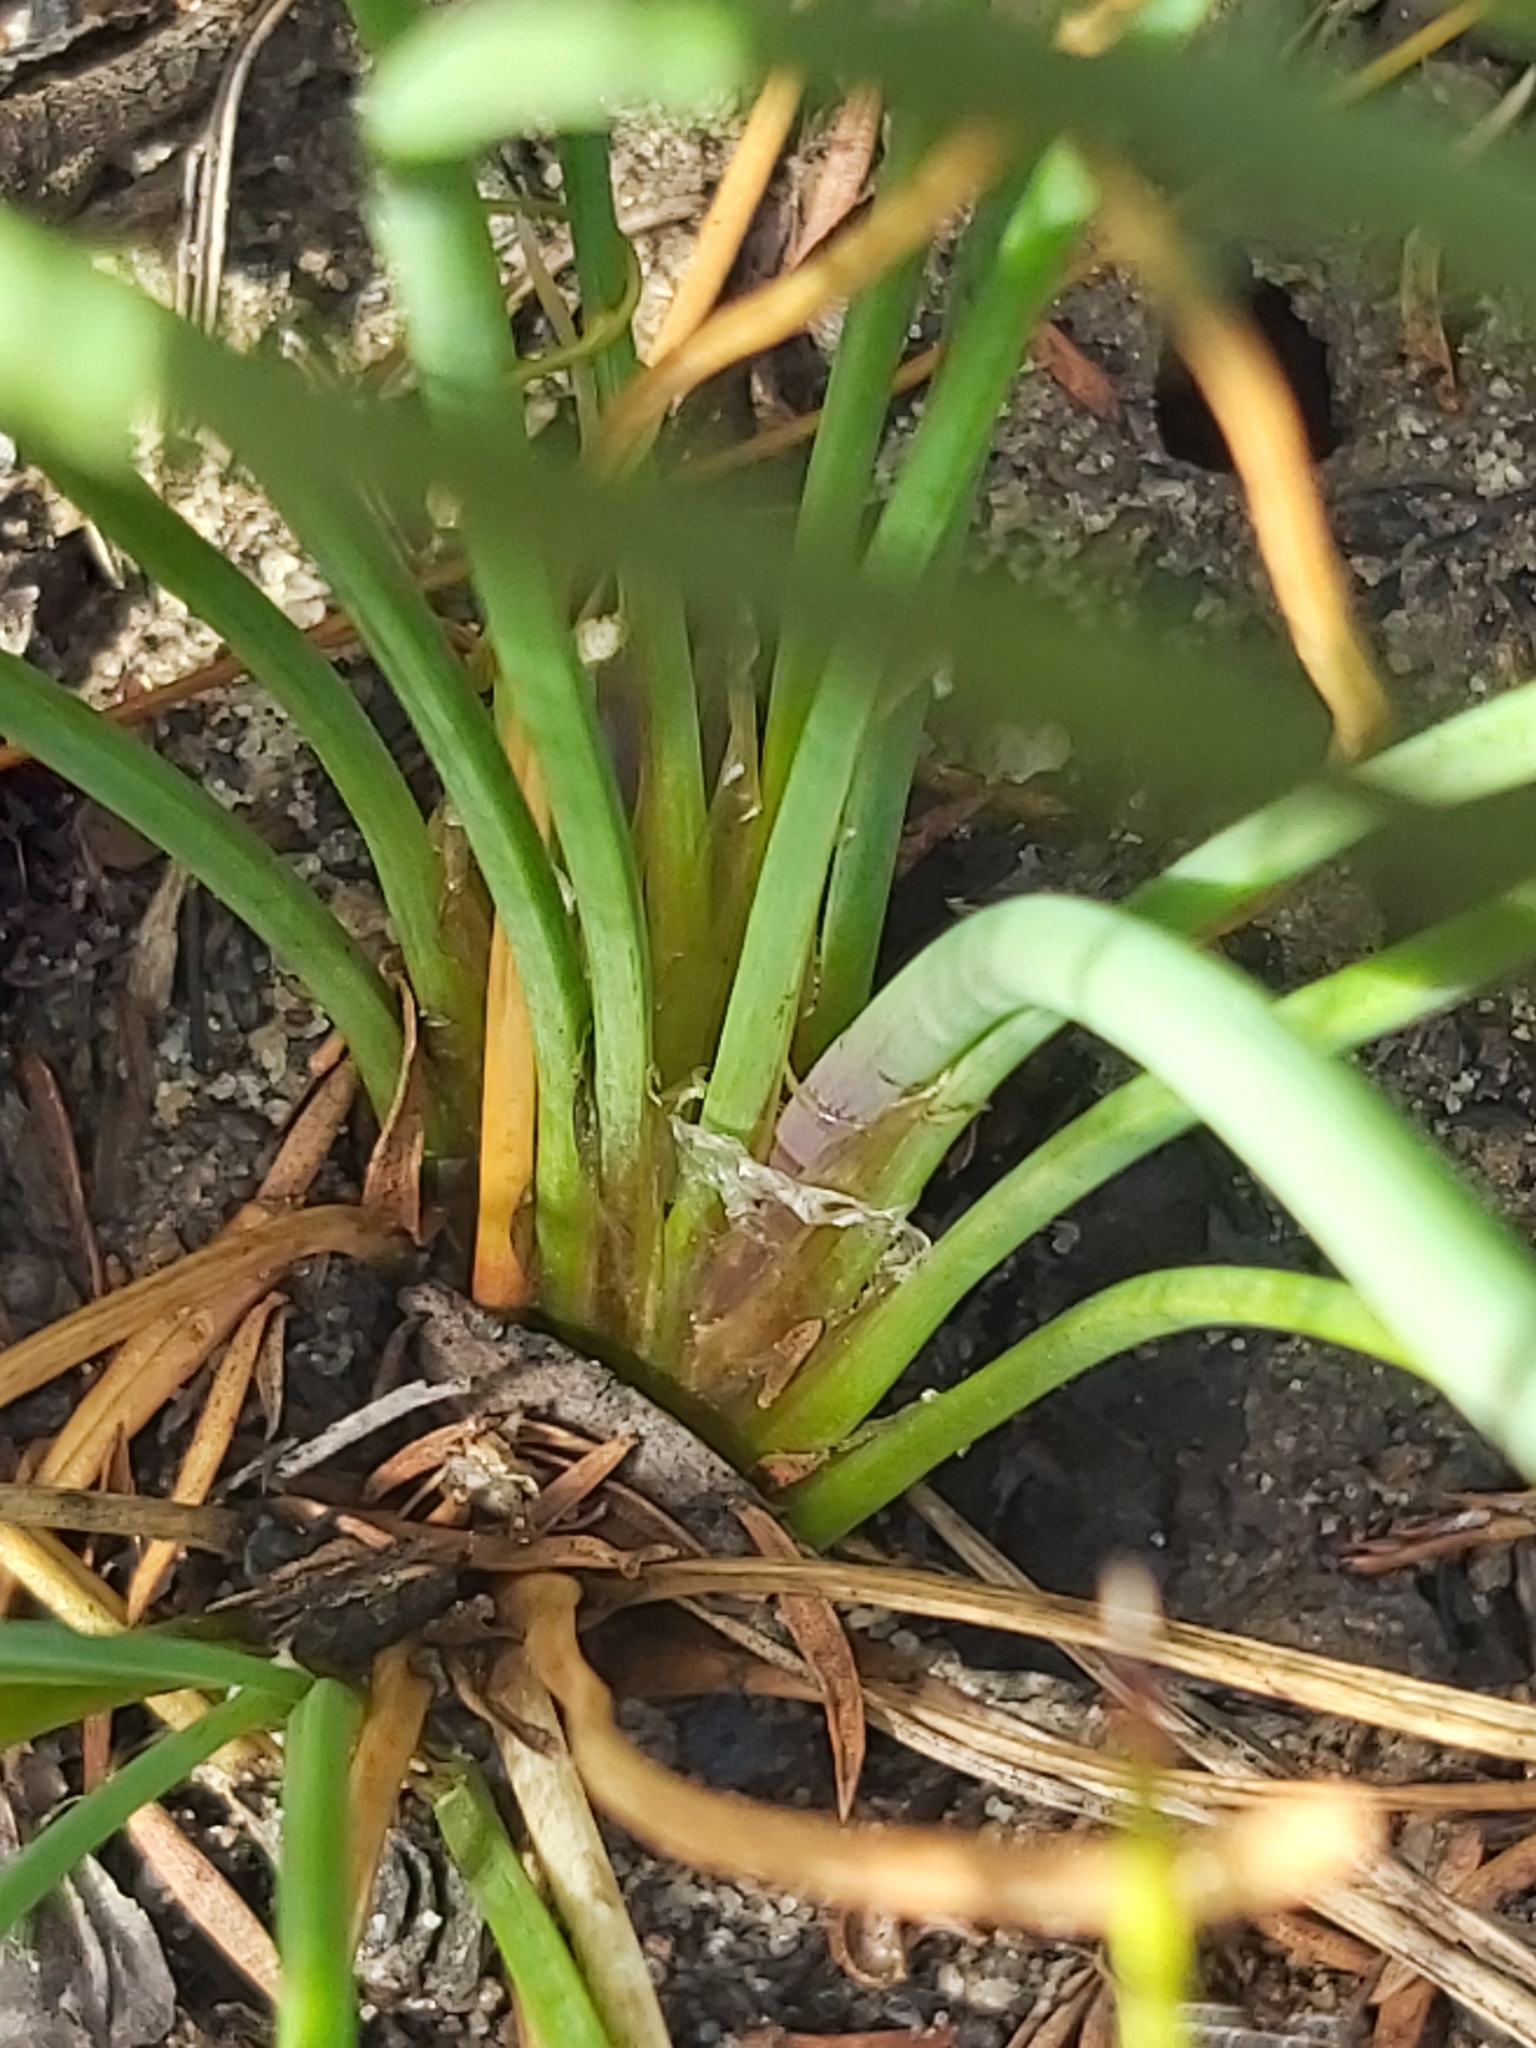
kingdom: Plantae
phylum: Tracheophyta
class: Liliopsida
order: Asparagales
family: Asparagaceae
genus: Sowerbaea
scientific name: Sowerbaea juncea
